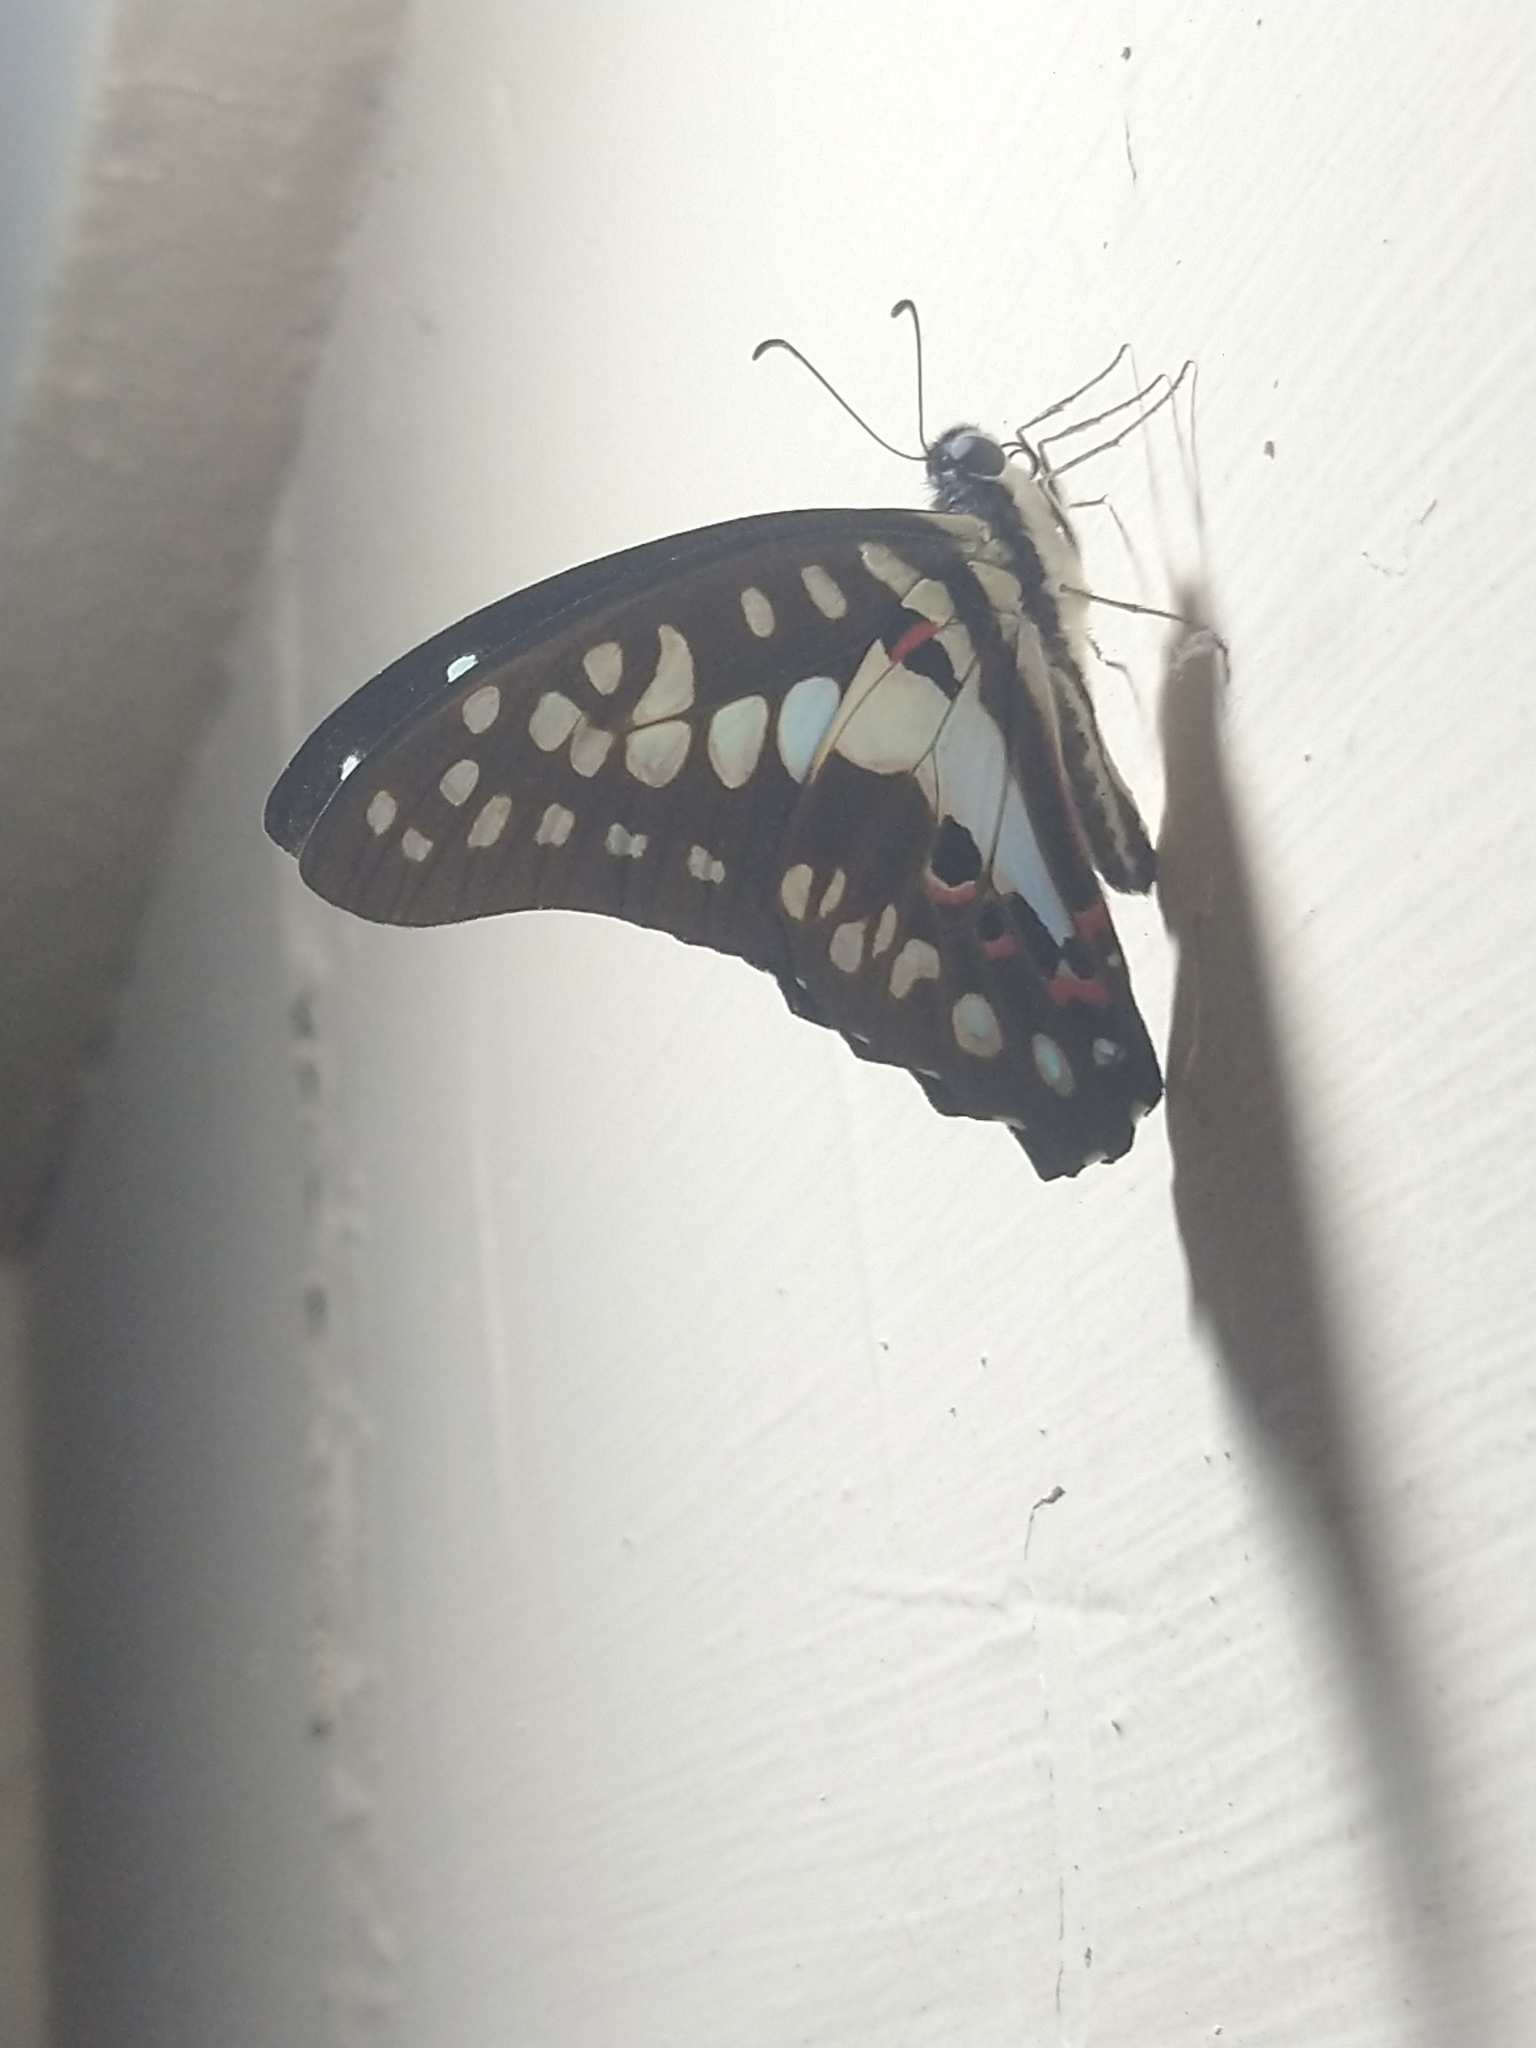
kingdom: Animalia
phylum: Arthropoda
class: Insecta
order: Lepidoptera
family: Papilionidae
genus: Graphium
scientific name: Graphium doson
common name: Common jay
